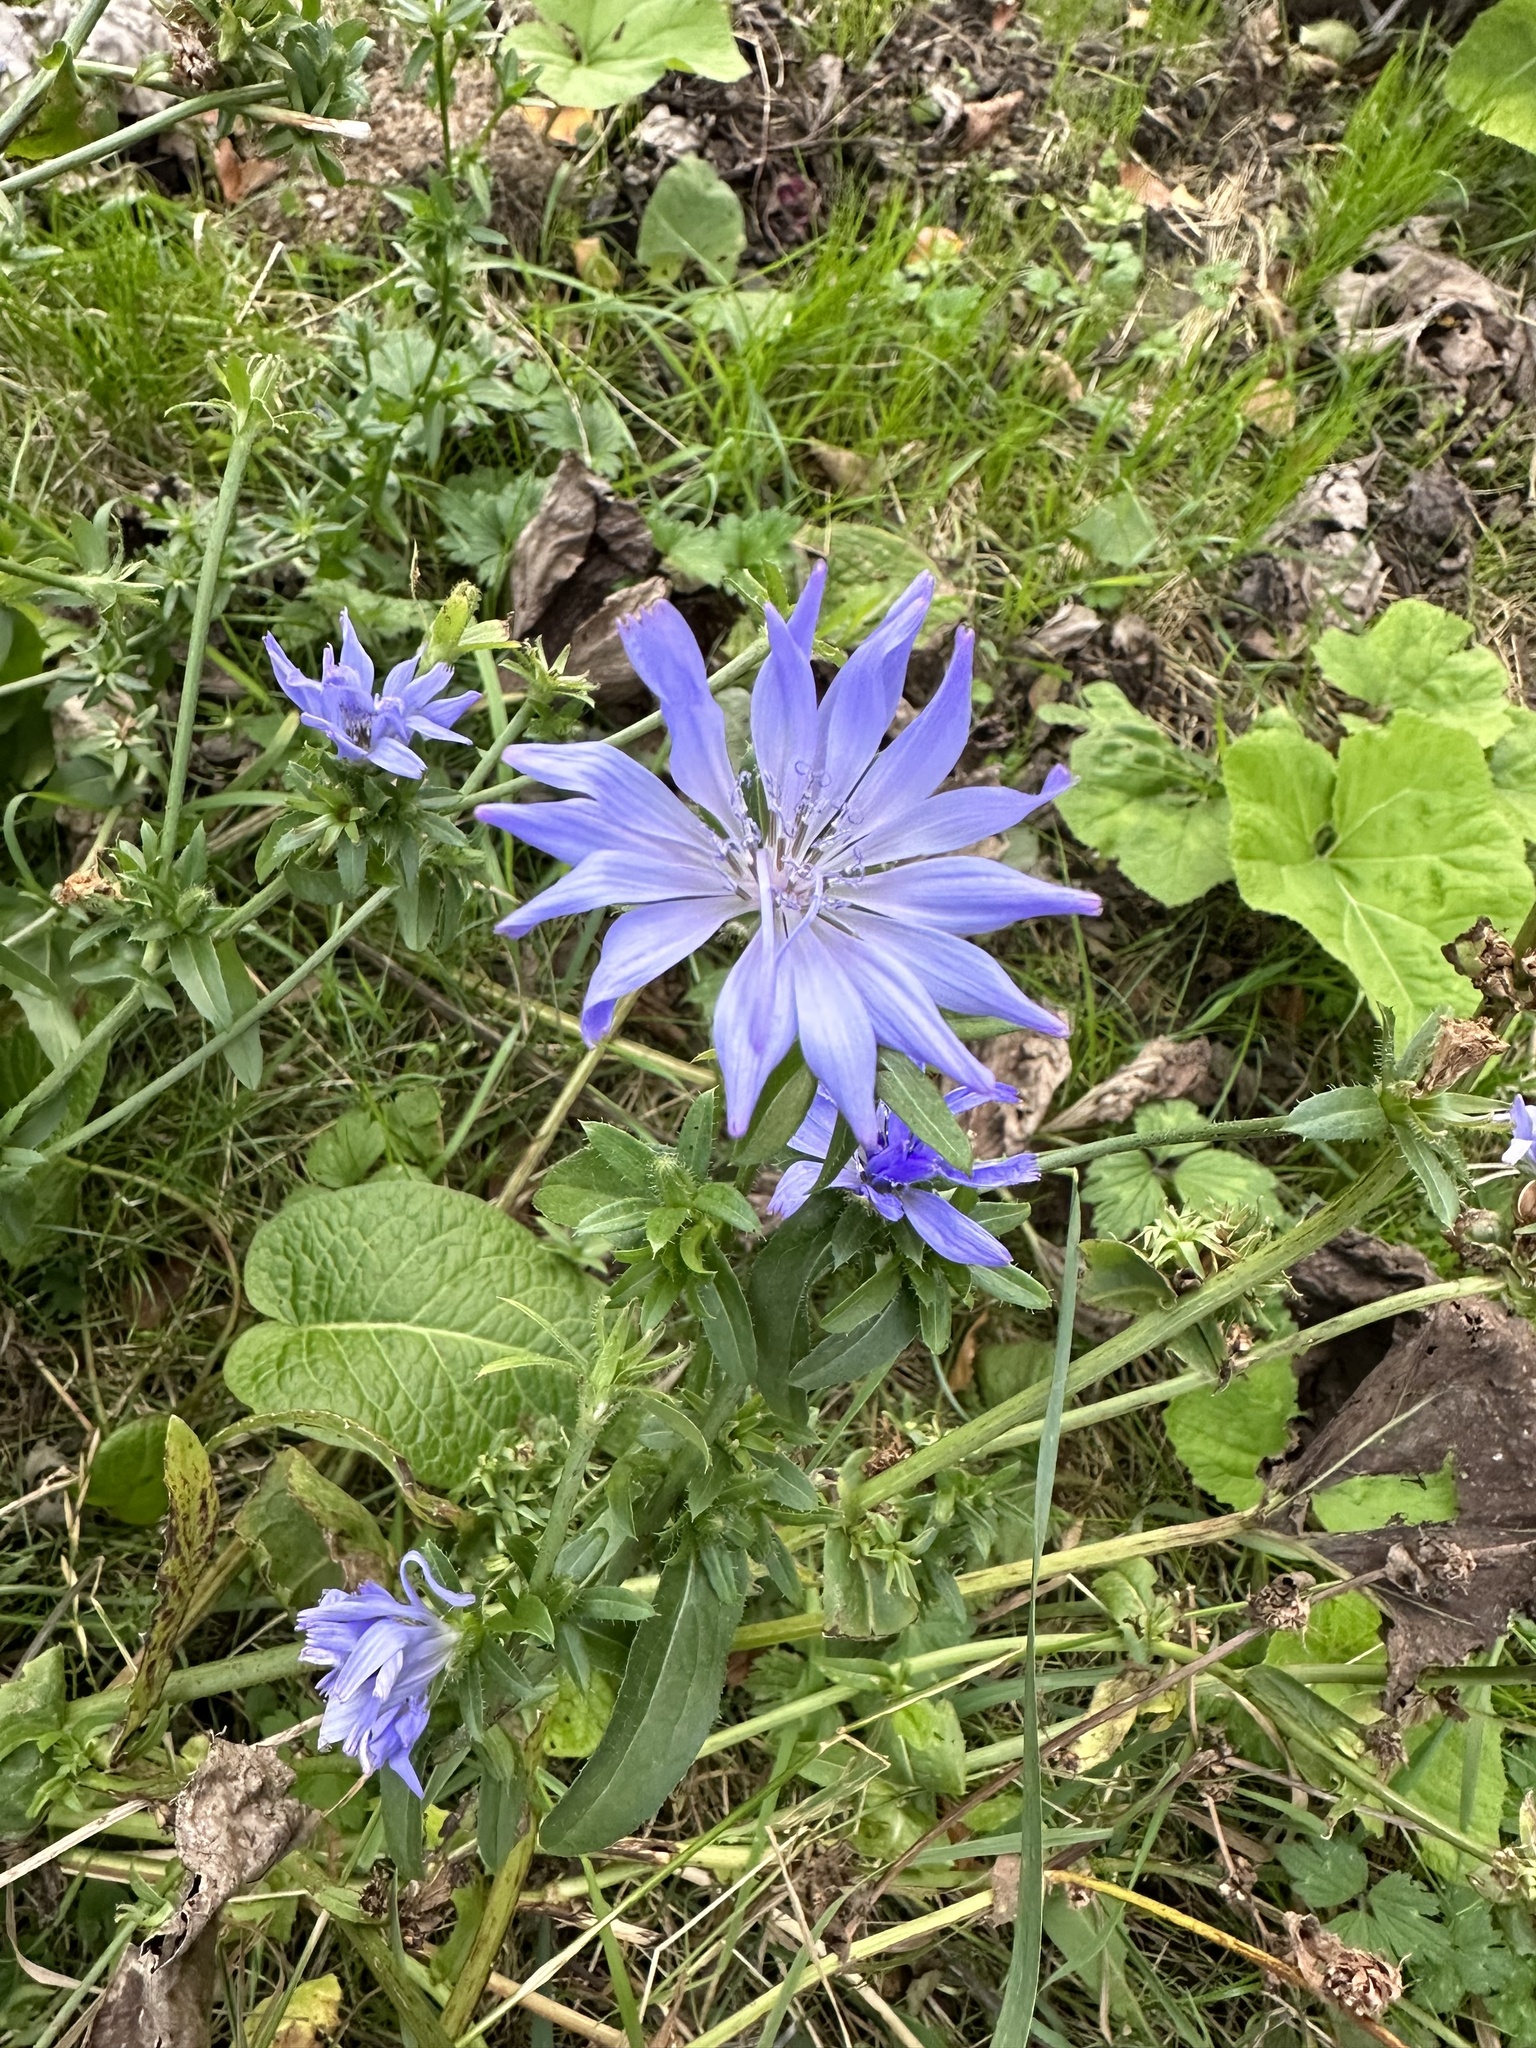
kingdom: Plantae
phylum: Tracheophyta
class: Magnoliopsida
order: Asterales
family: Asteraceae
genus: Cichorium
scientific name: Cichorium intybus
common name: Chicory
